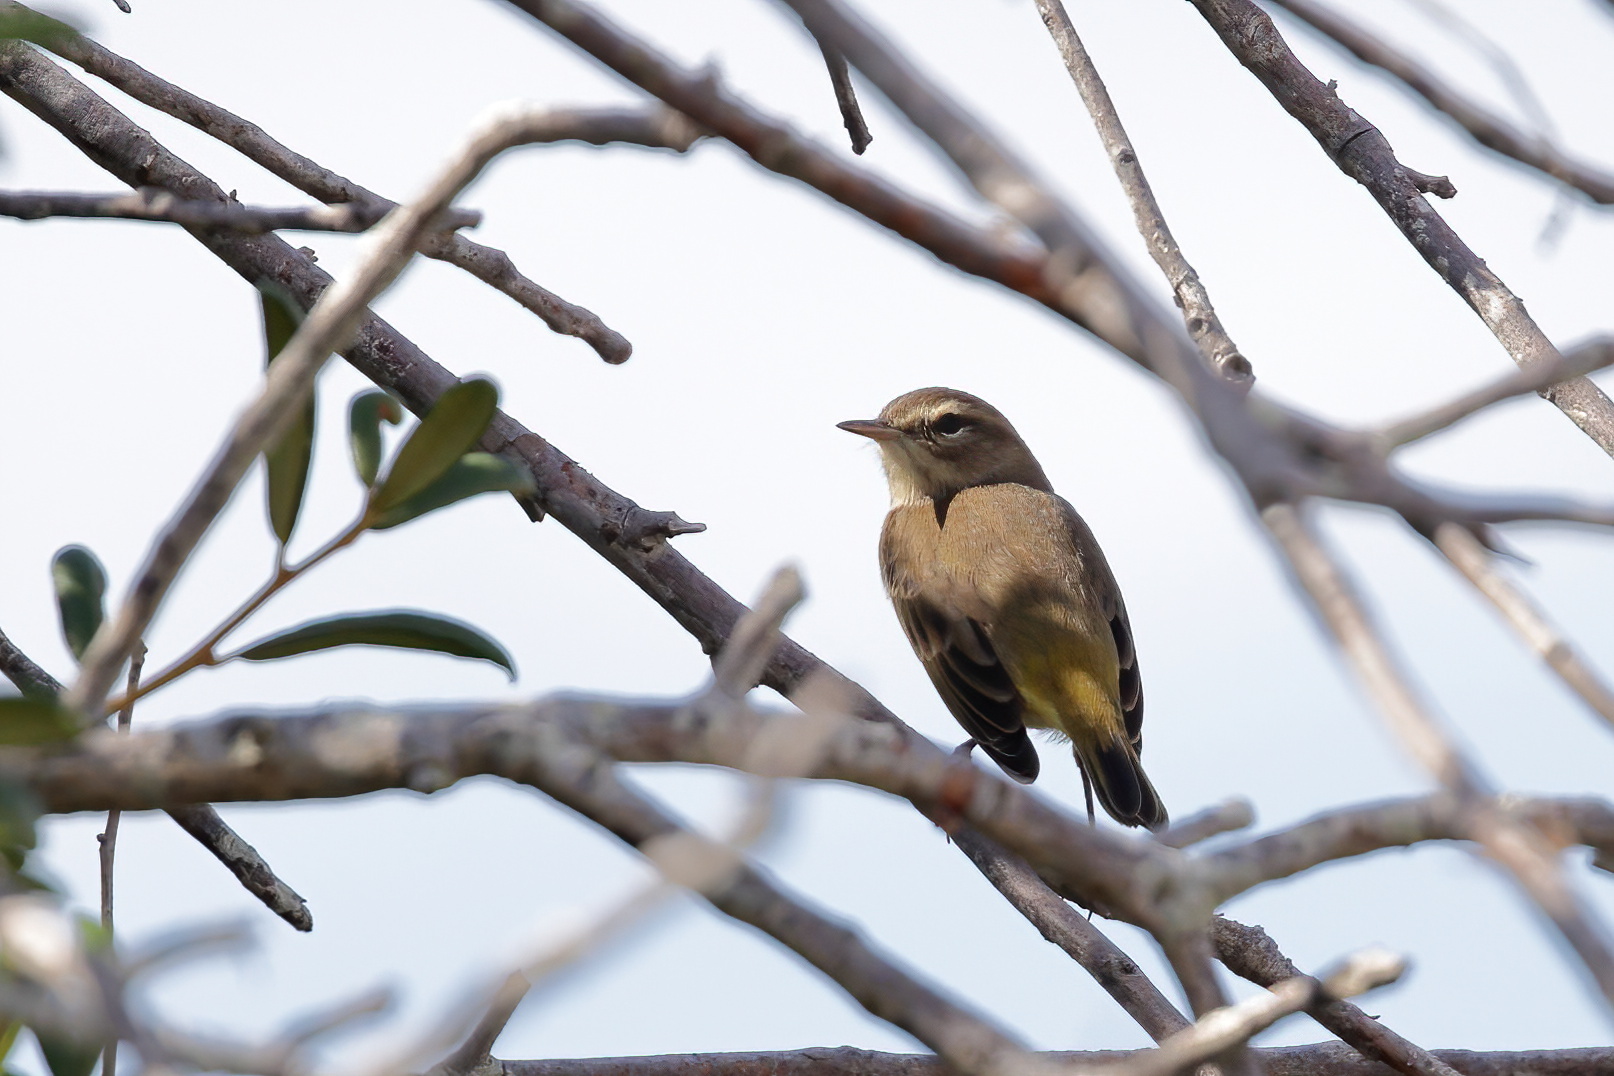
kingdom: Animalia
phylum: Chordata
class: Aves
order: Passeriformes
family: Parulidae
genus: Setophaga
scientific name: Setophaga palmarum
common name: Palm warbler
